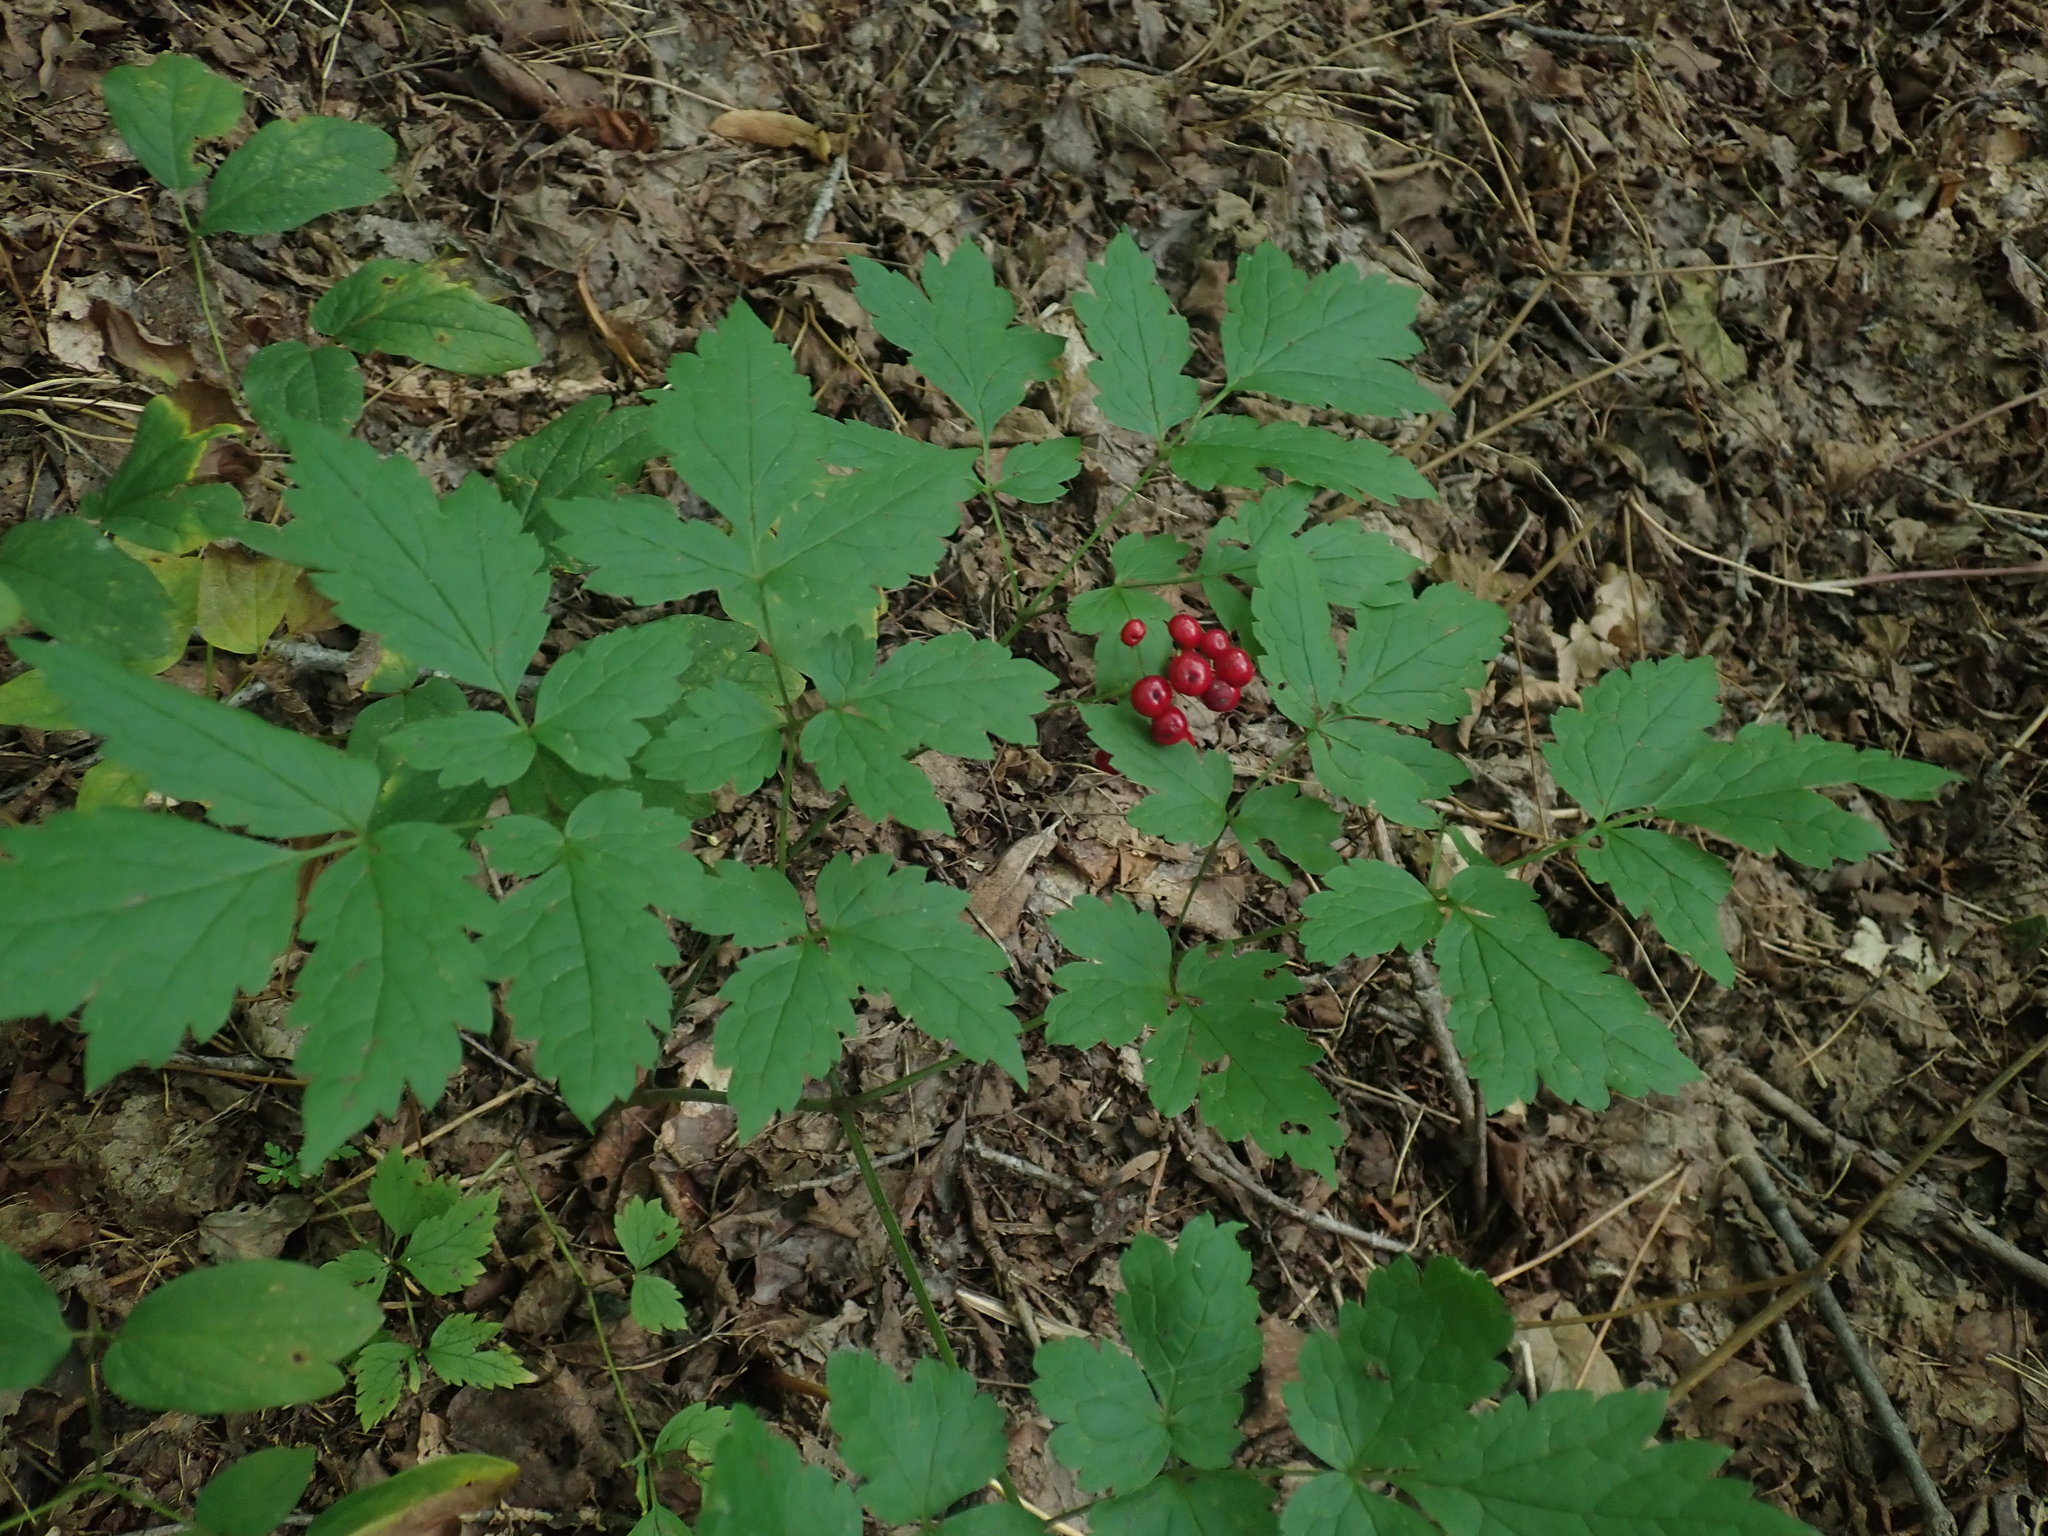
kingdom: Plantae
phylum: Tracheophyta
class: Magnoliopsida
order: Ranunculales
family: Ranunculaceae
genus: Actaea
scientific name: Actaea rubra
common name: Red baneberry
